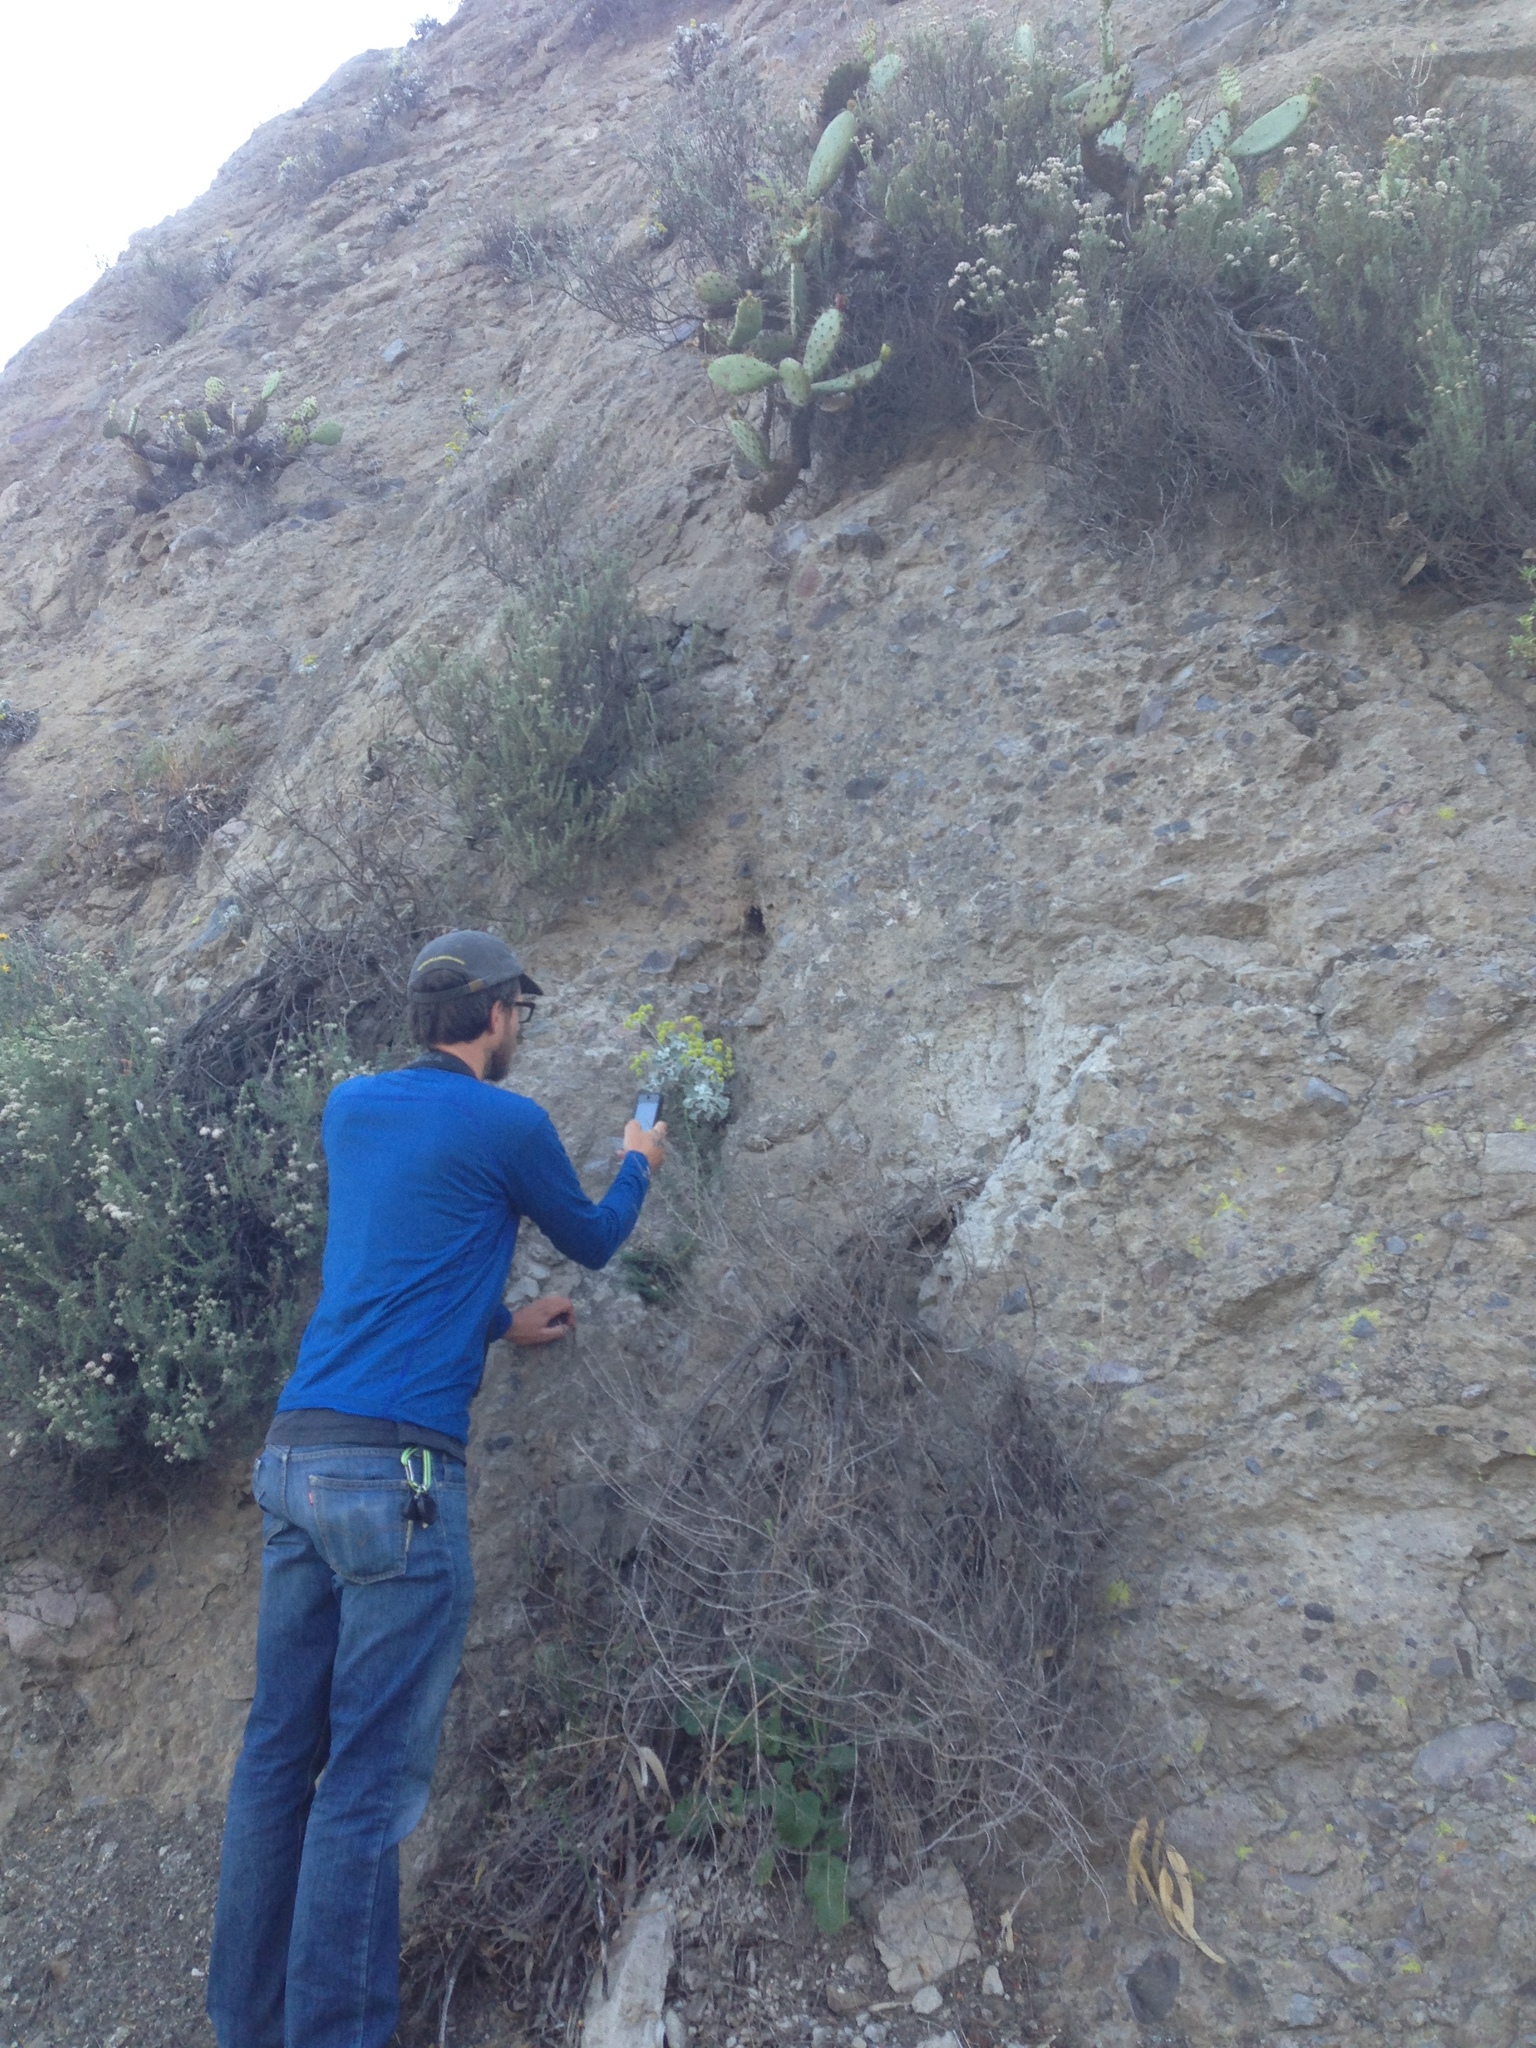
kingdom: Plantae
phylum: Tracheophyta
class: Magnoliopsida
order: Caryophyllales
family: Polygonaceae
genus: Eriogonum
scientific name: Eriogonum crocatum
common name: Saffron wild buckwheat
